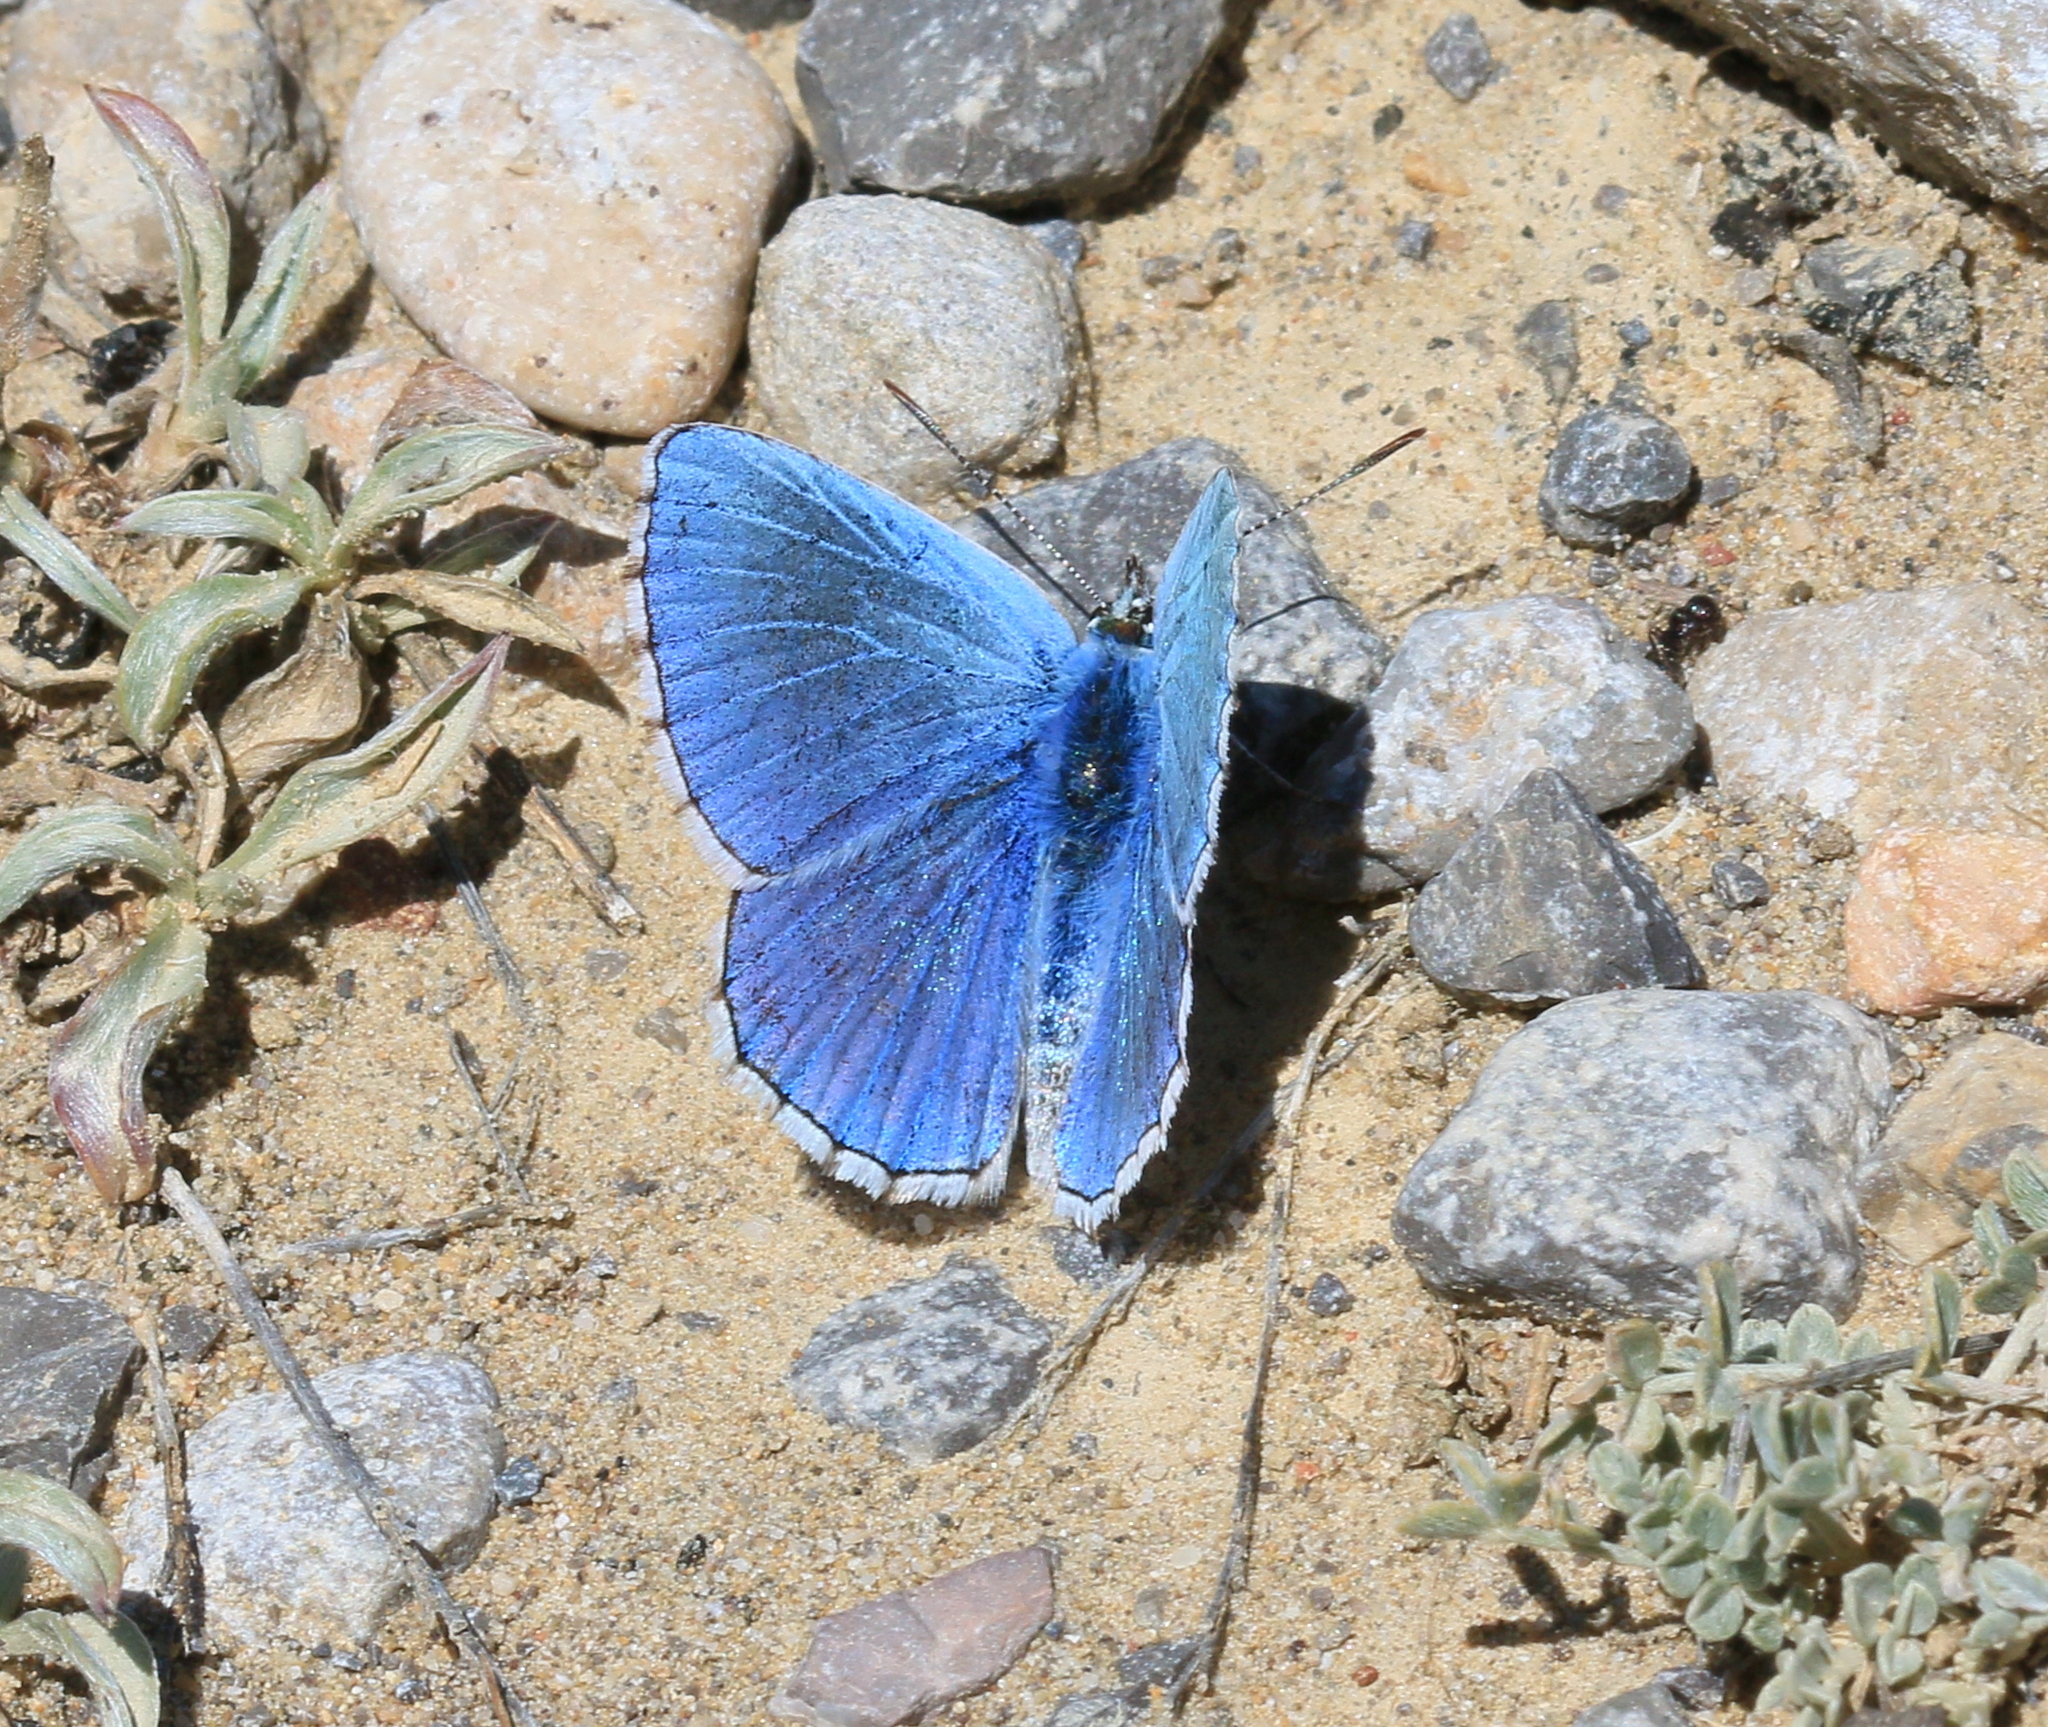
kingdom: Animalia
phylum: Arthropoda
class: Insecta
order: Lepidoptera
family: Lycaenidae
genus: Lysandra
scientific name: Lysandra bellargus
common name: Adonis blue
